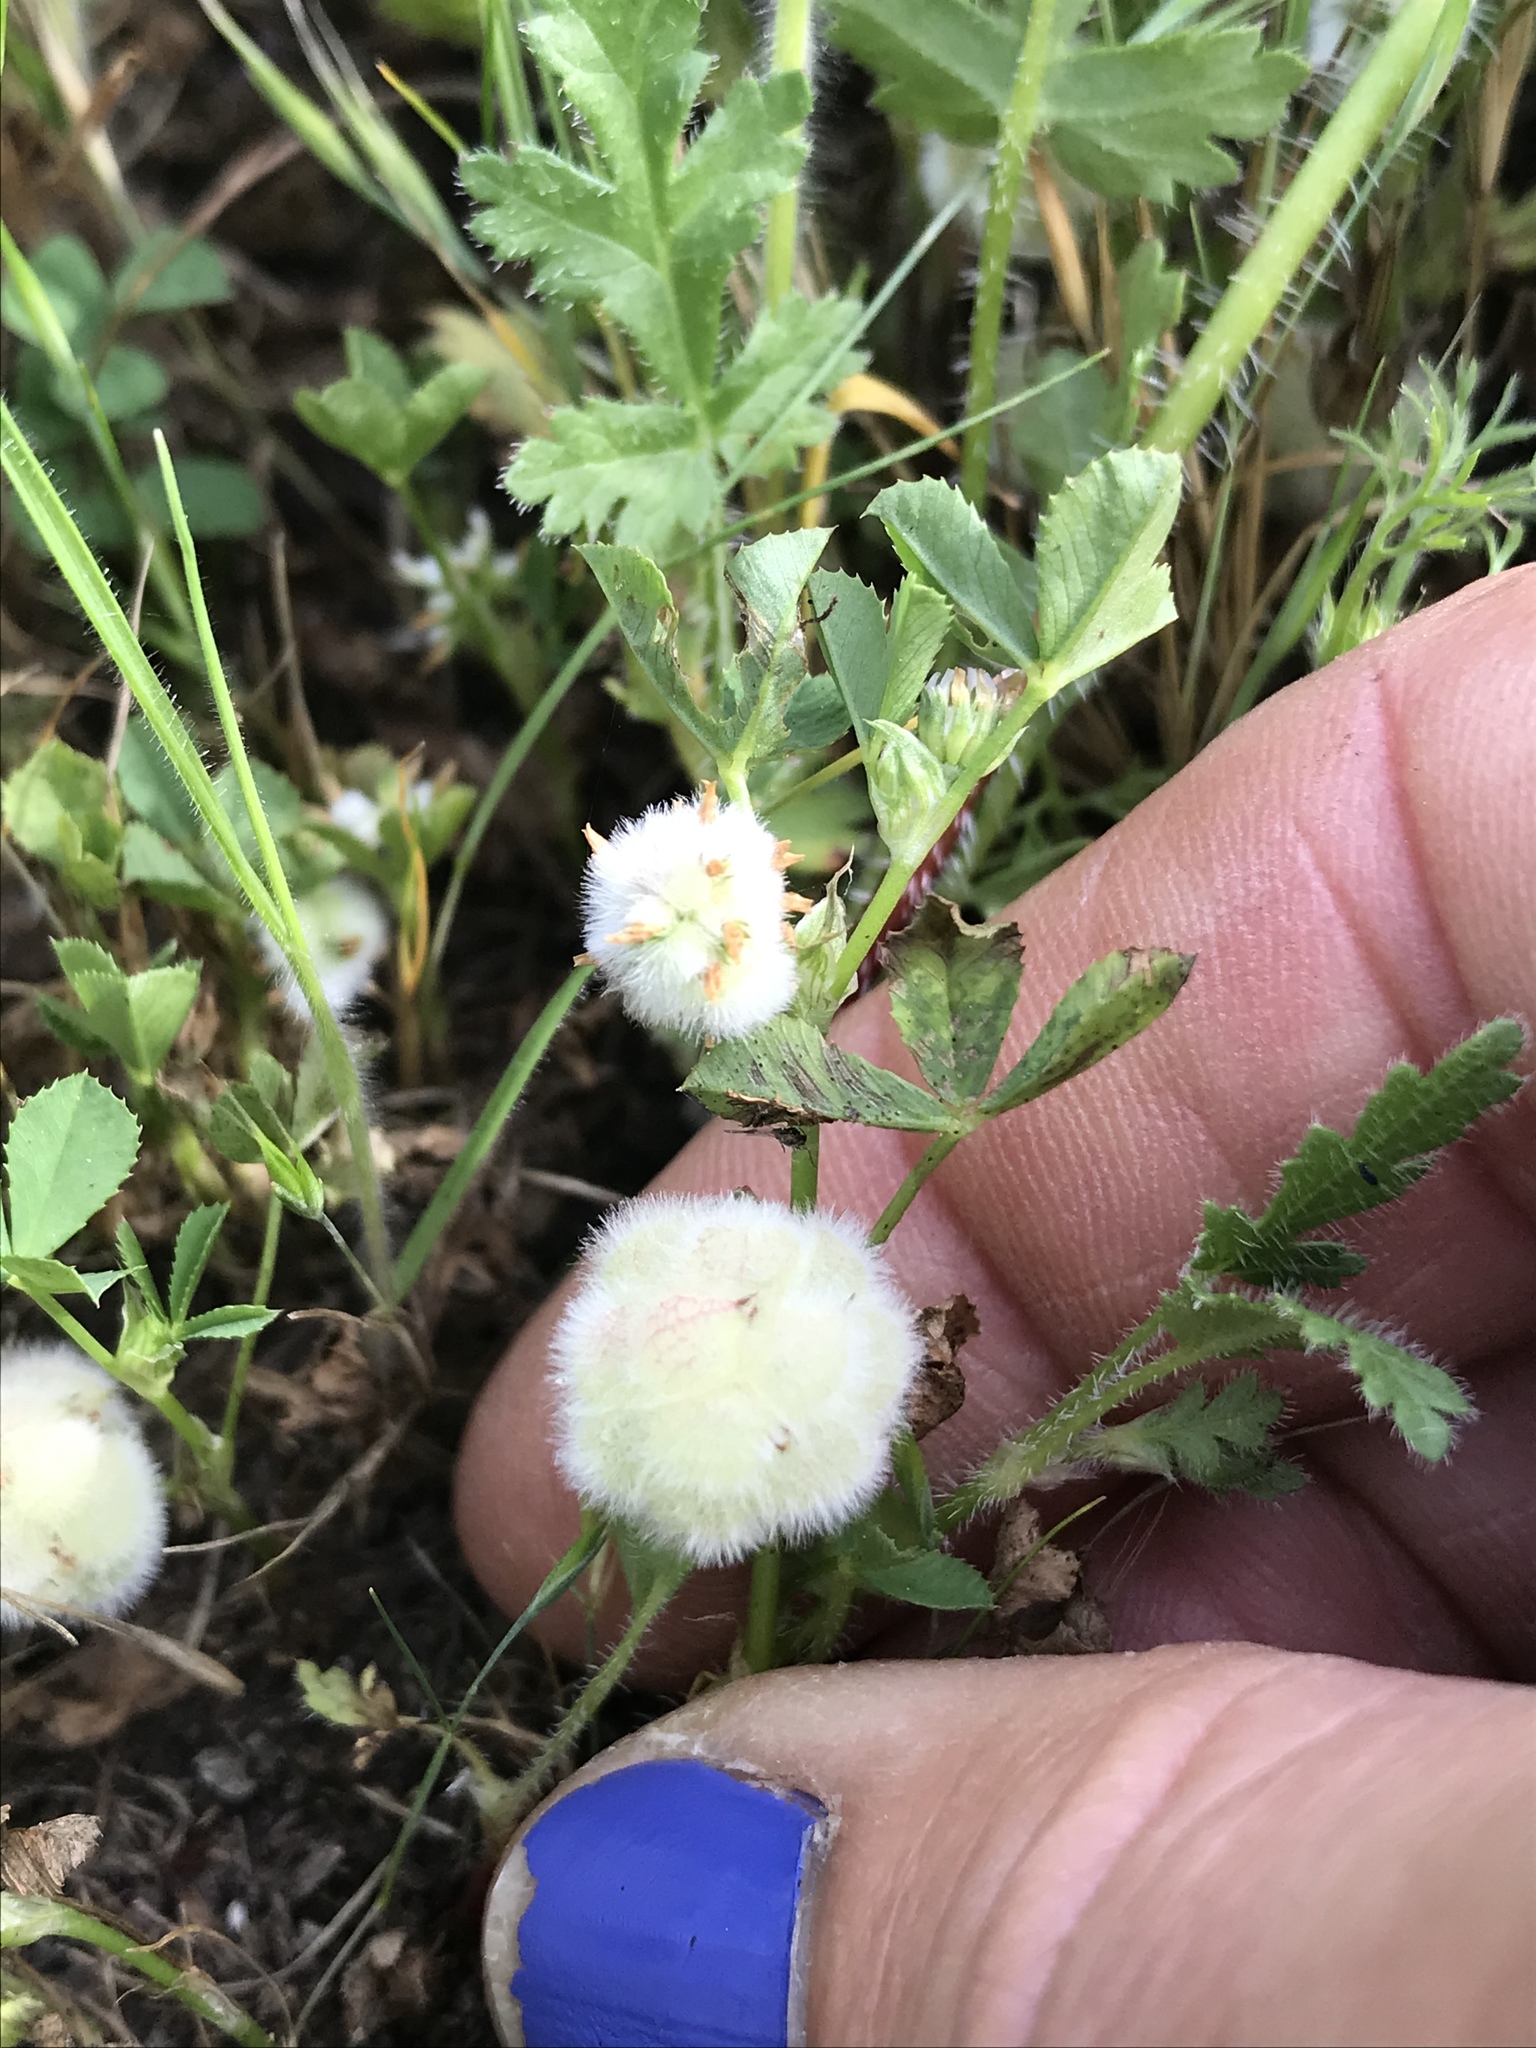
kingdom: Plantae
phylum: Tracheophyta
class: Magnoliopsida
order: Fabales
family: Fabaceae
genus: Trifolium
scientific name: Trifolium tomentosum
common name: Woolly clover
